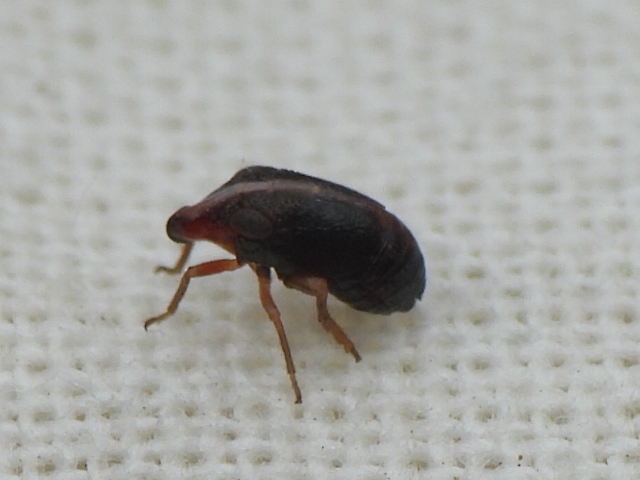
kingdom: Animalia
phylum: Arthropoda
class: Insecta
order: Hemiptera
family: Caliscelidae
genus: Bruchomorpha
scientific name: Bruchomorpha nodosa
